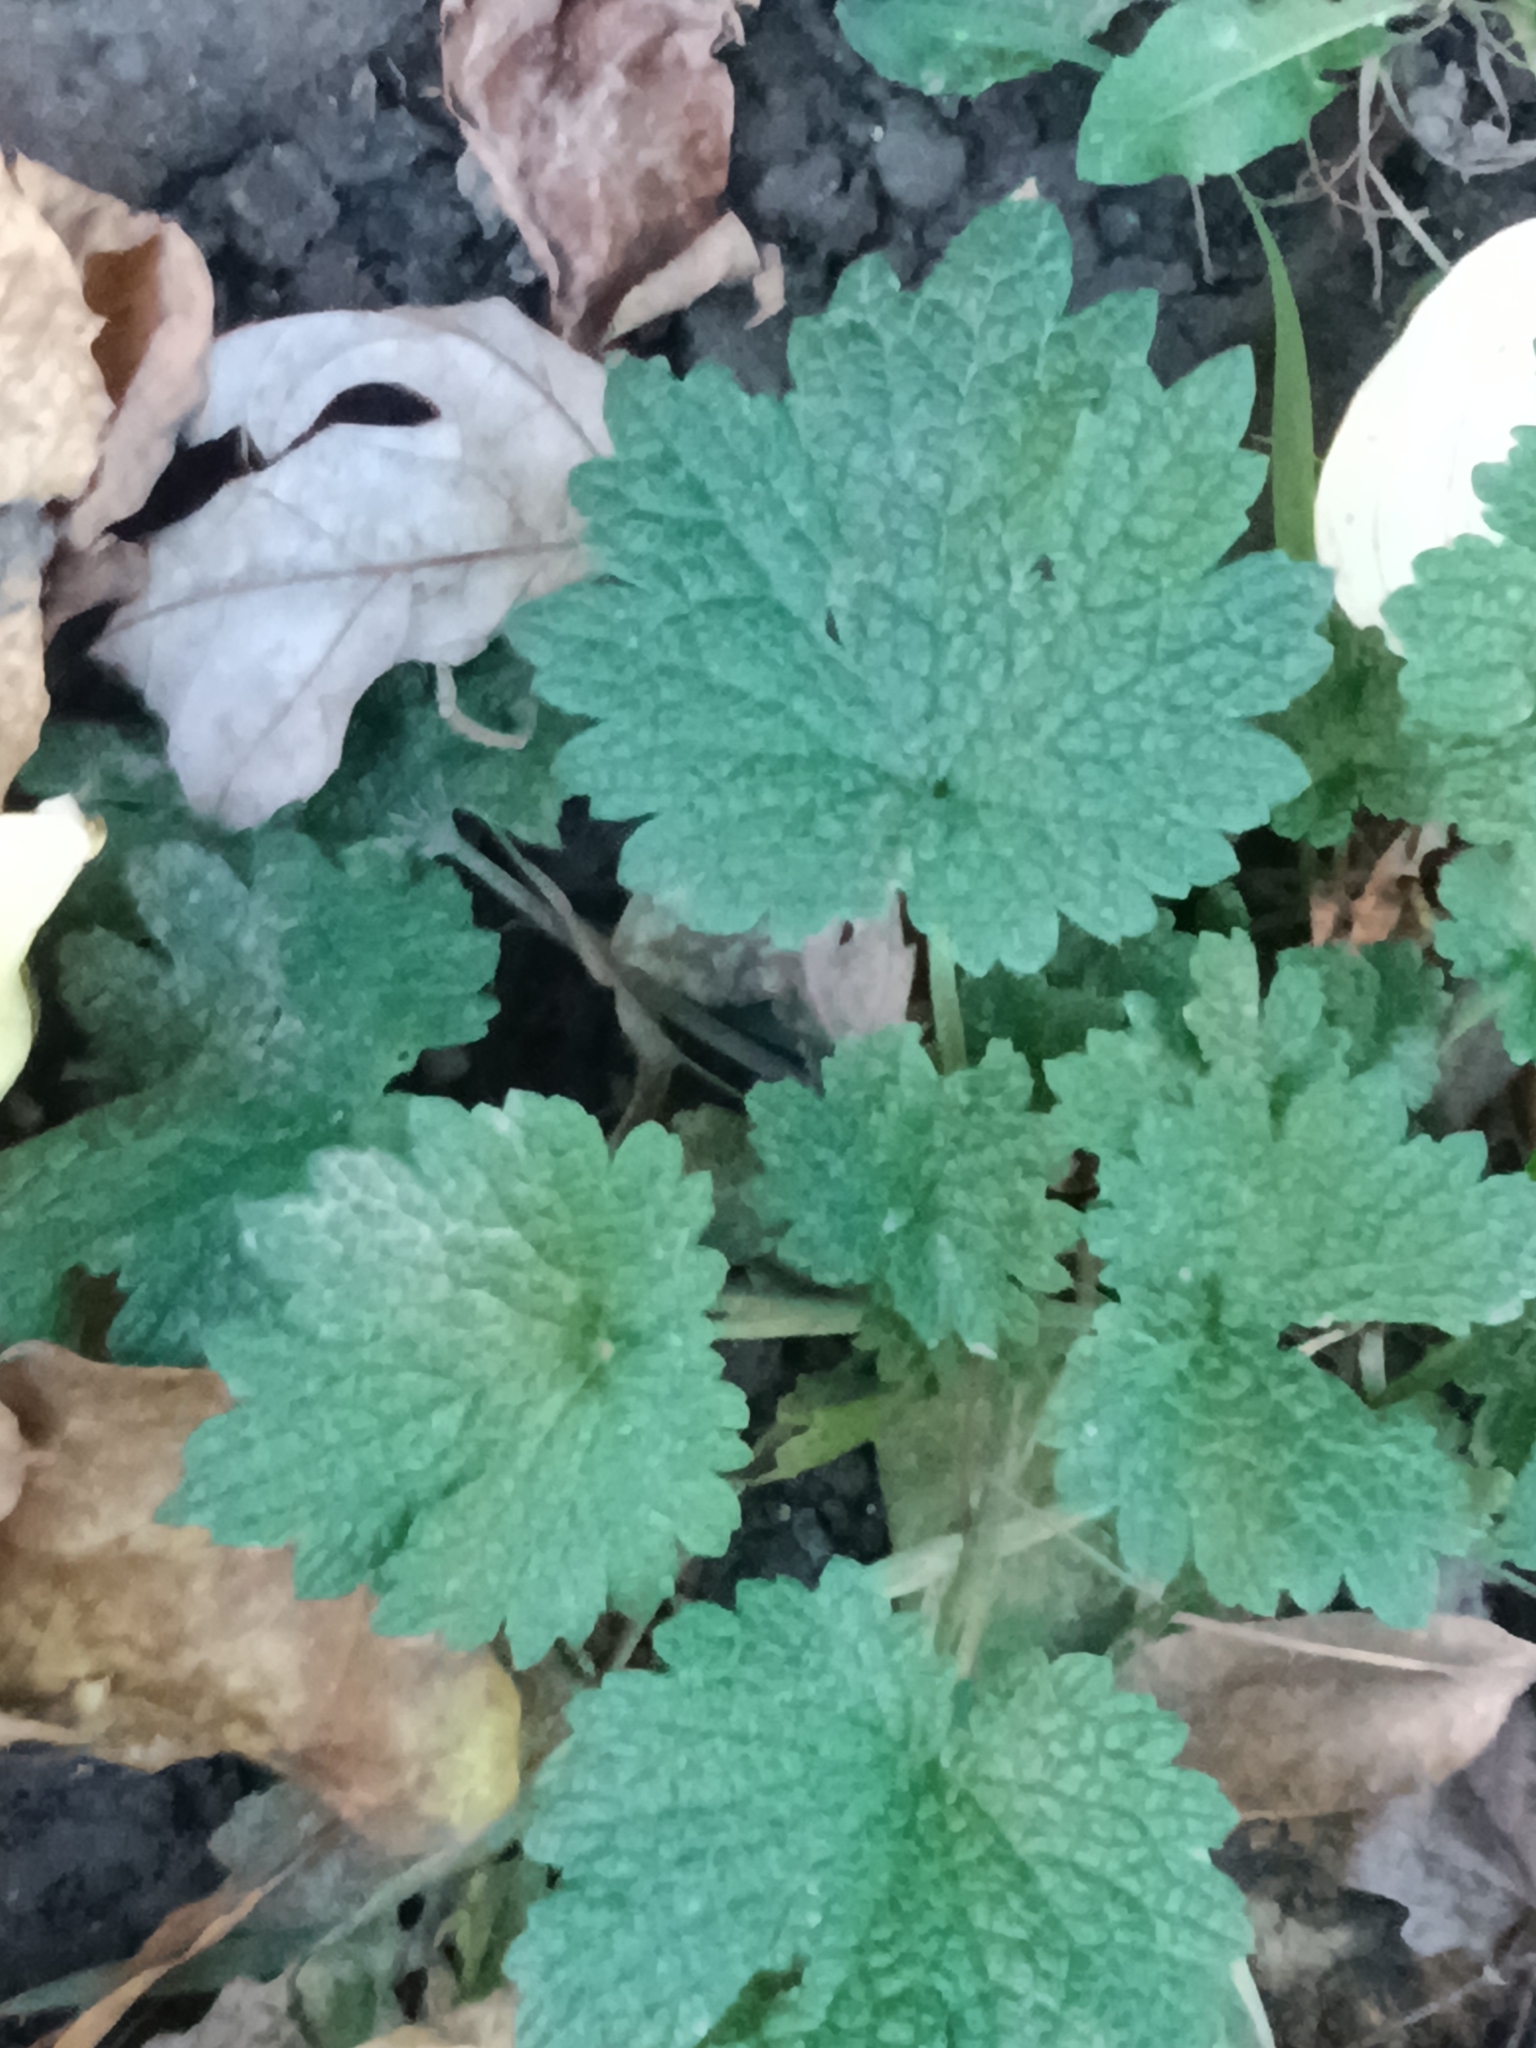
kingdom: Plantae
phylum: Tracheophyta
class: Magnoliopsida
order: Lamiales
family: Lamiaceae
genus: Leonurus
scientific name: Leonurus cardiaca
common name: Motherwort
